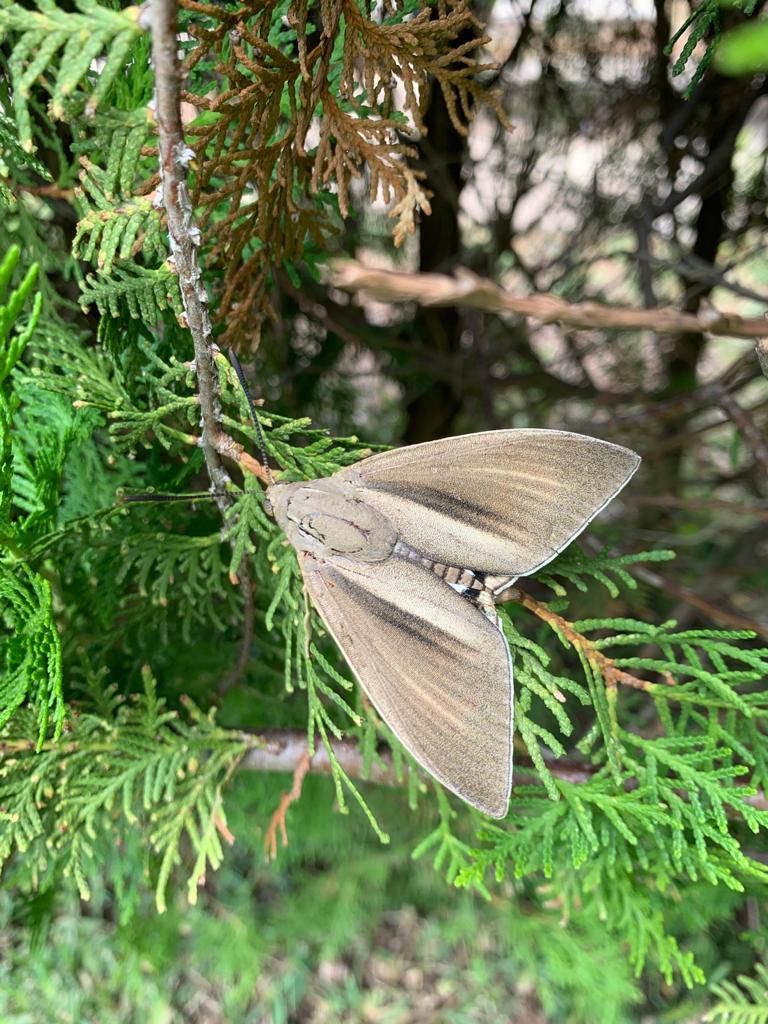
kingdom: Animalia
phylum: Arthropoda
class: Insecta
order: Lepidoptera
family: Castniidae
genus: Paysandisia
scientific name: Paysandisia archon
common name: Palm moth
